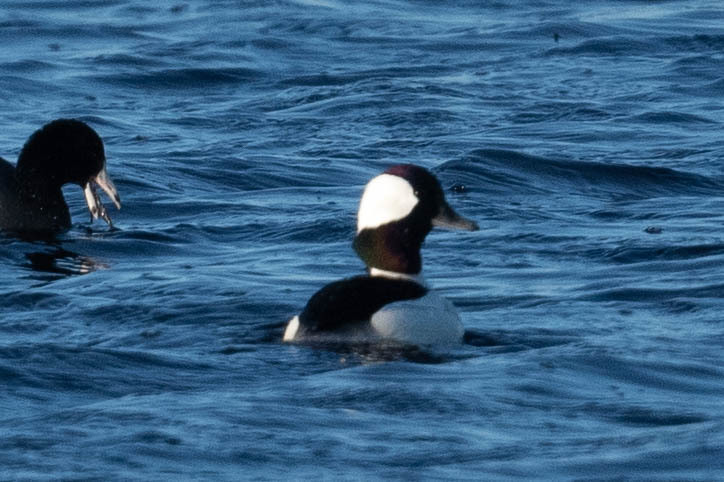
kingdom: Animalia
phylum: Chordata
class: Aves
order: Anseriformes
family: Anatidae
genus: Bucephala
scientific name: Bucephala albeola
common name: Bufflehead
